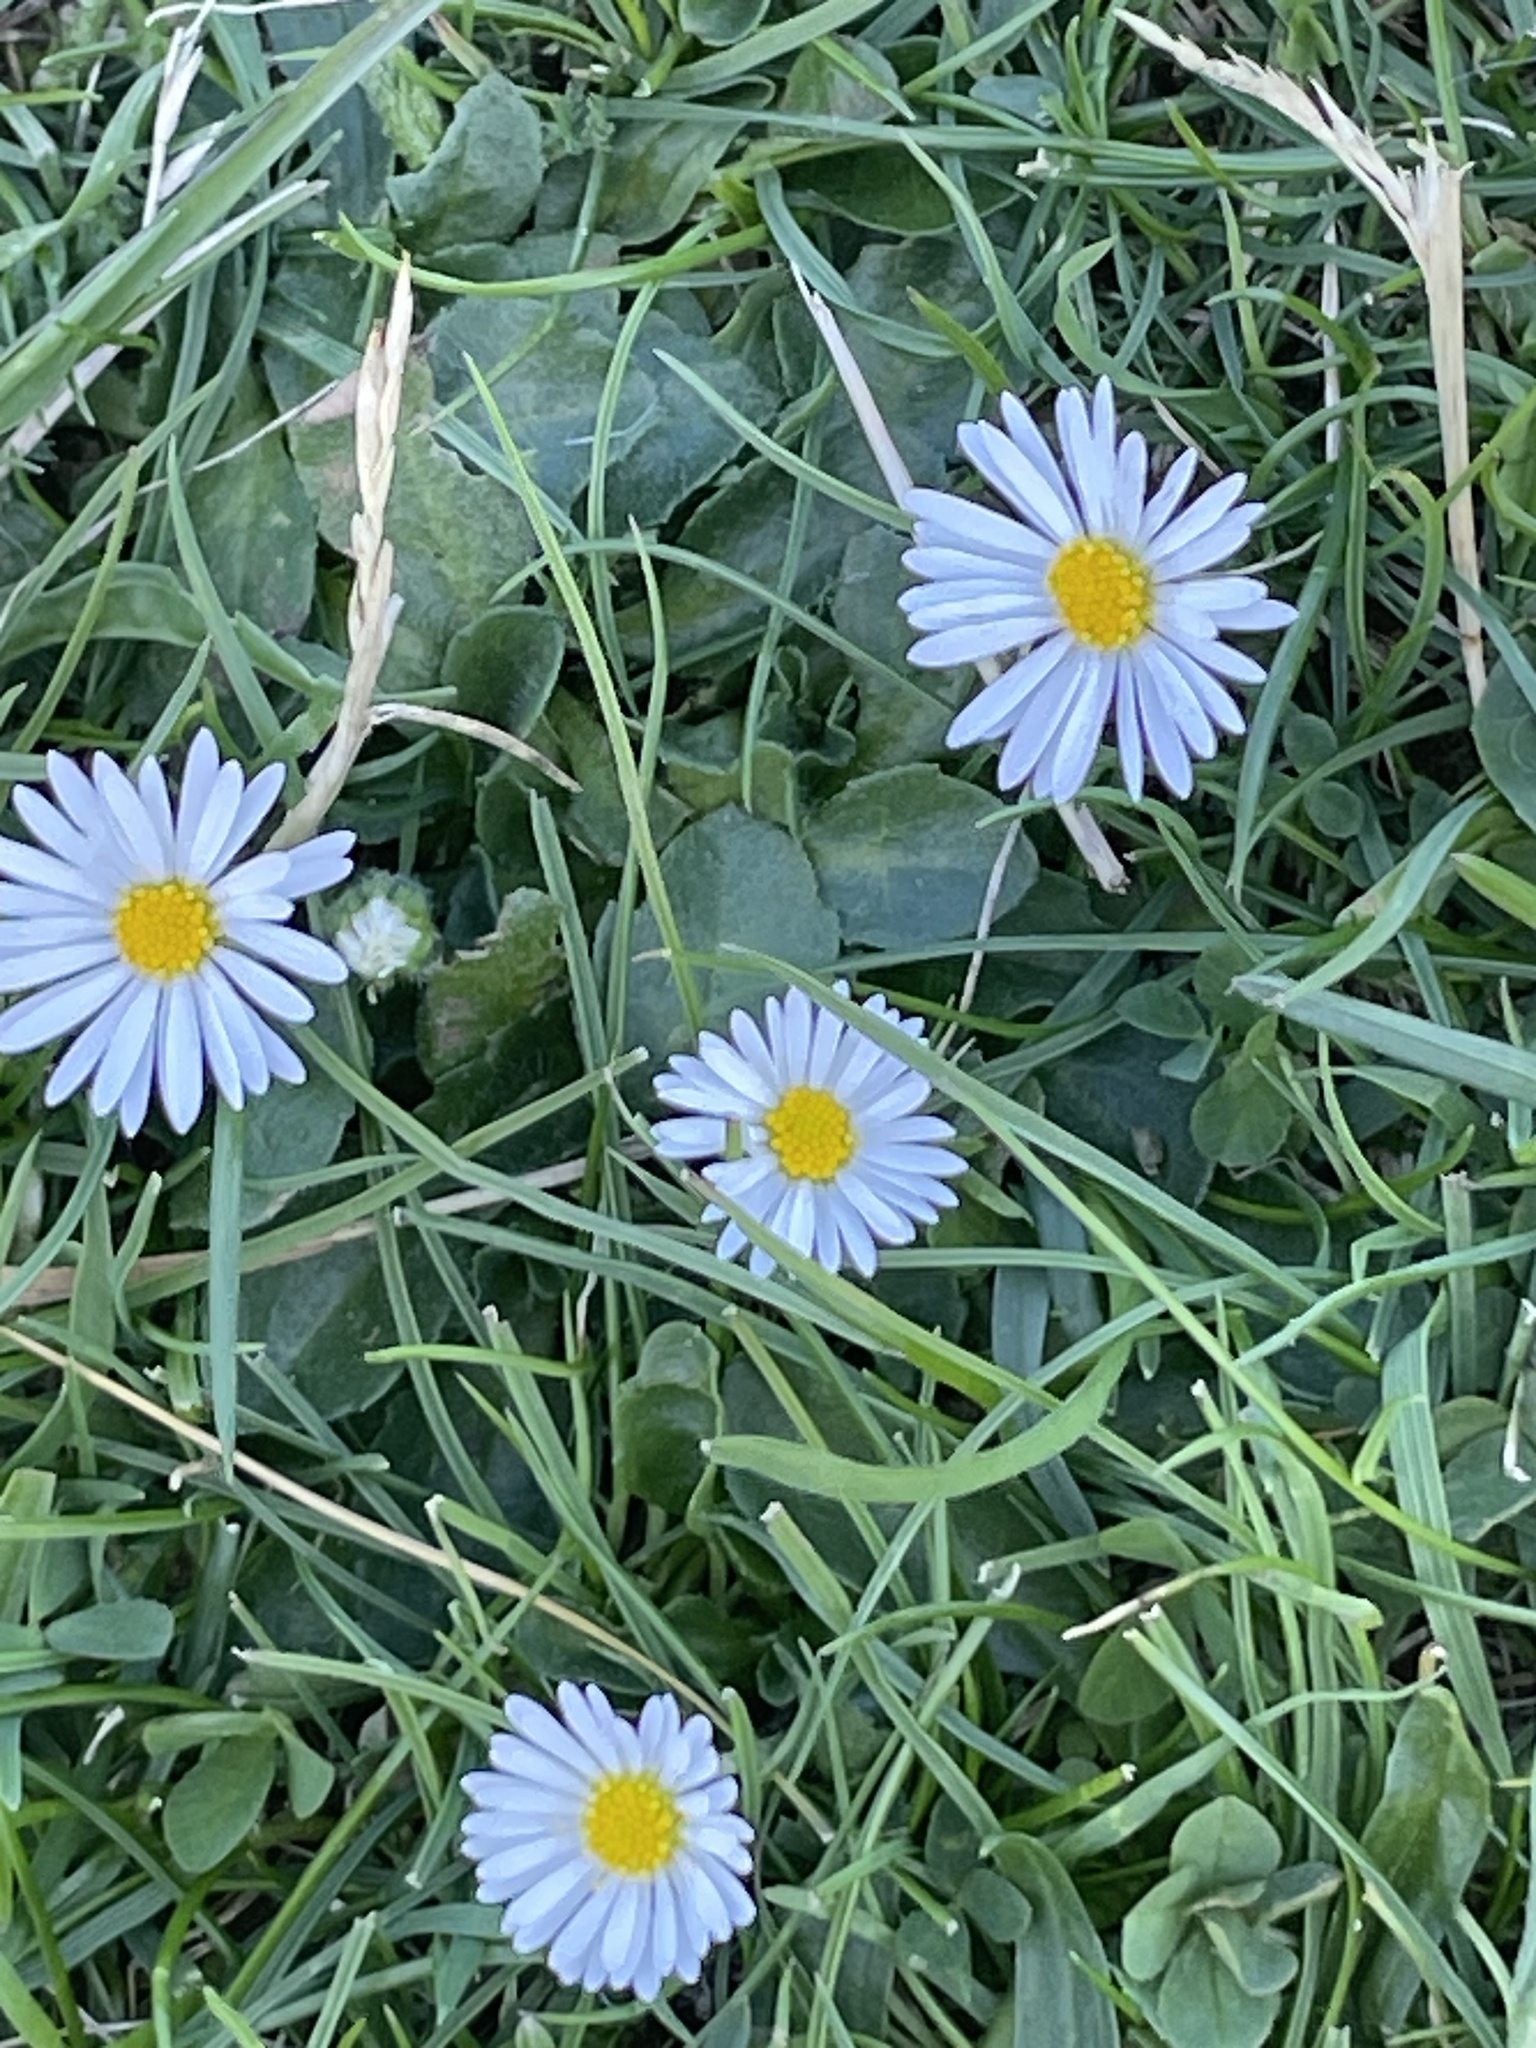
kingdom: Plantae
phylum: Tracheophyta
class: Magnoliopsida
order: Asterales
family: Asteraceae
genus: Bellis
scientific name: Bellis perennis
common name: Lawndaisy
